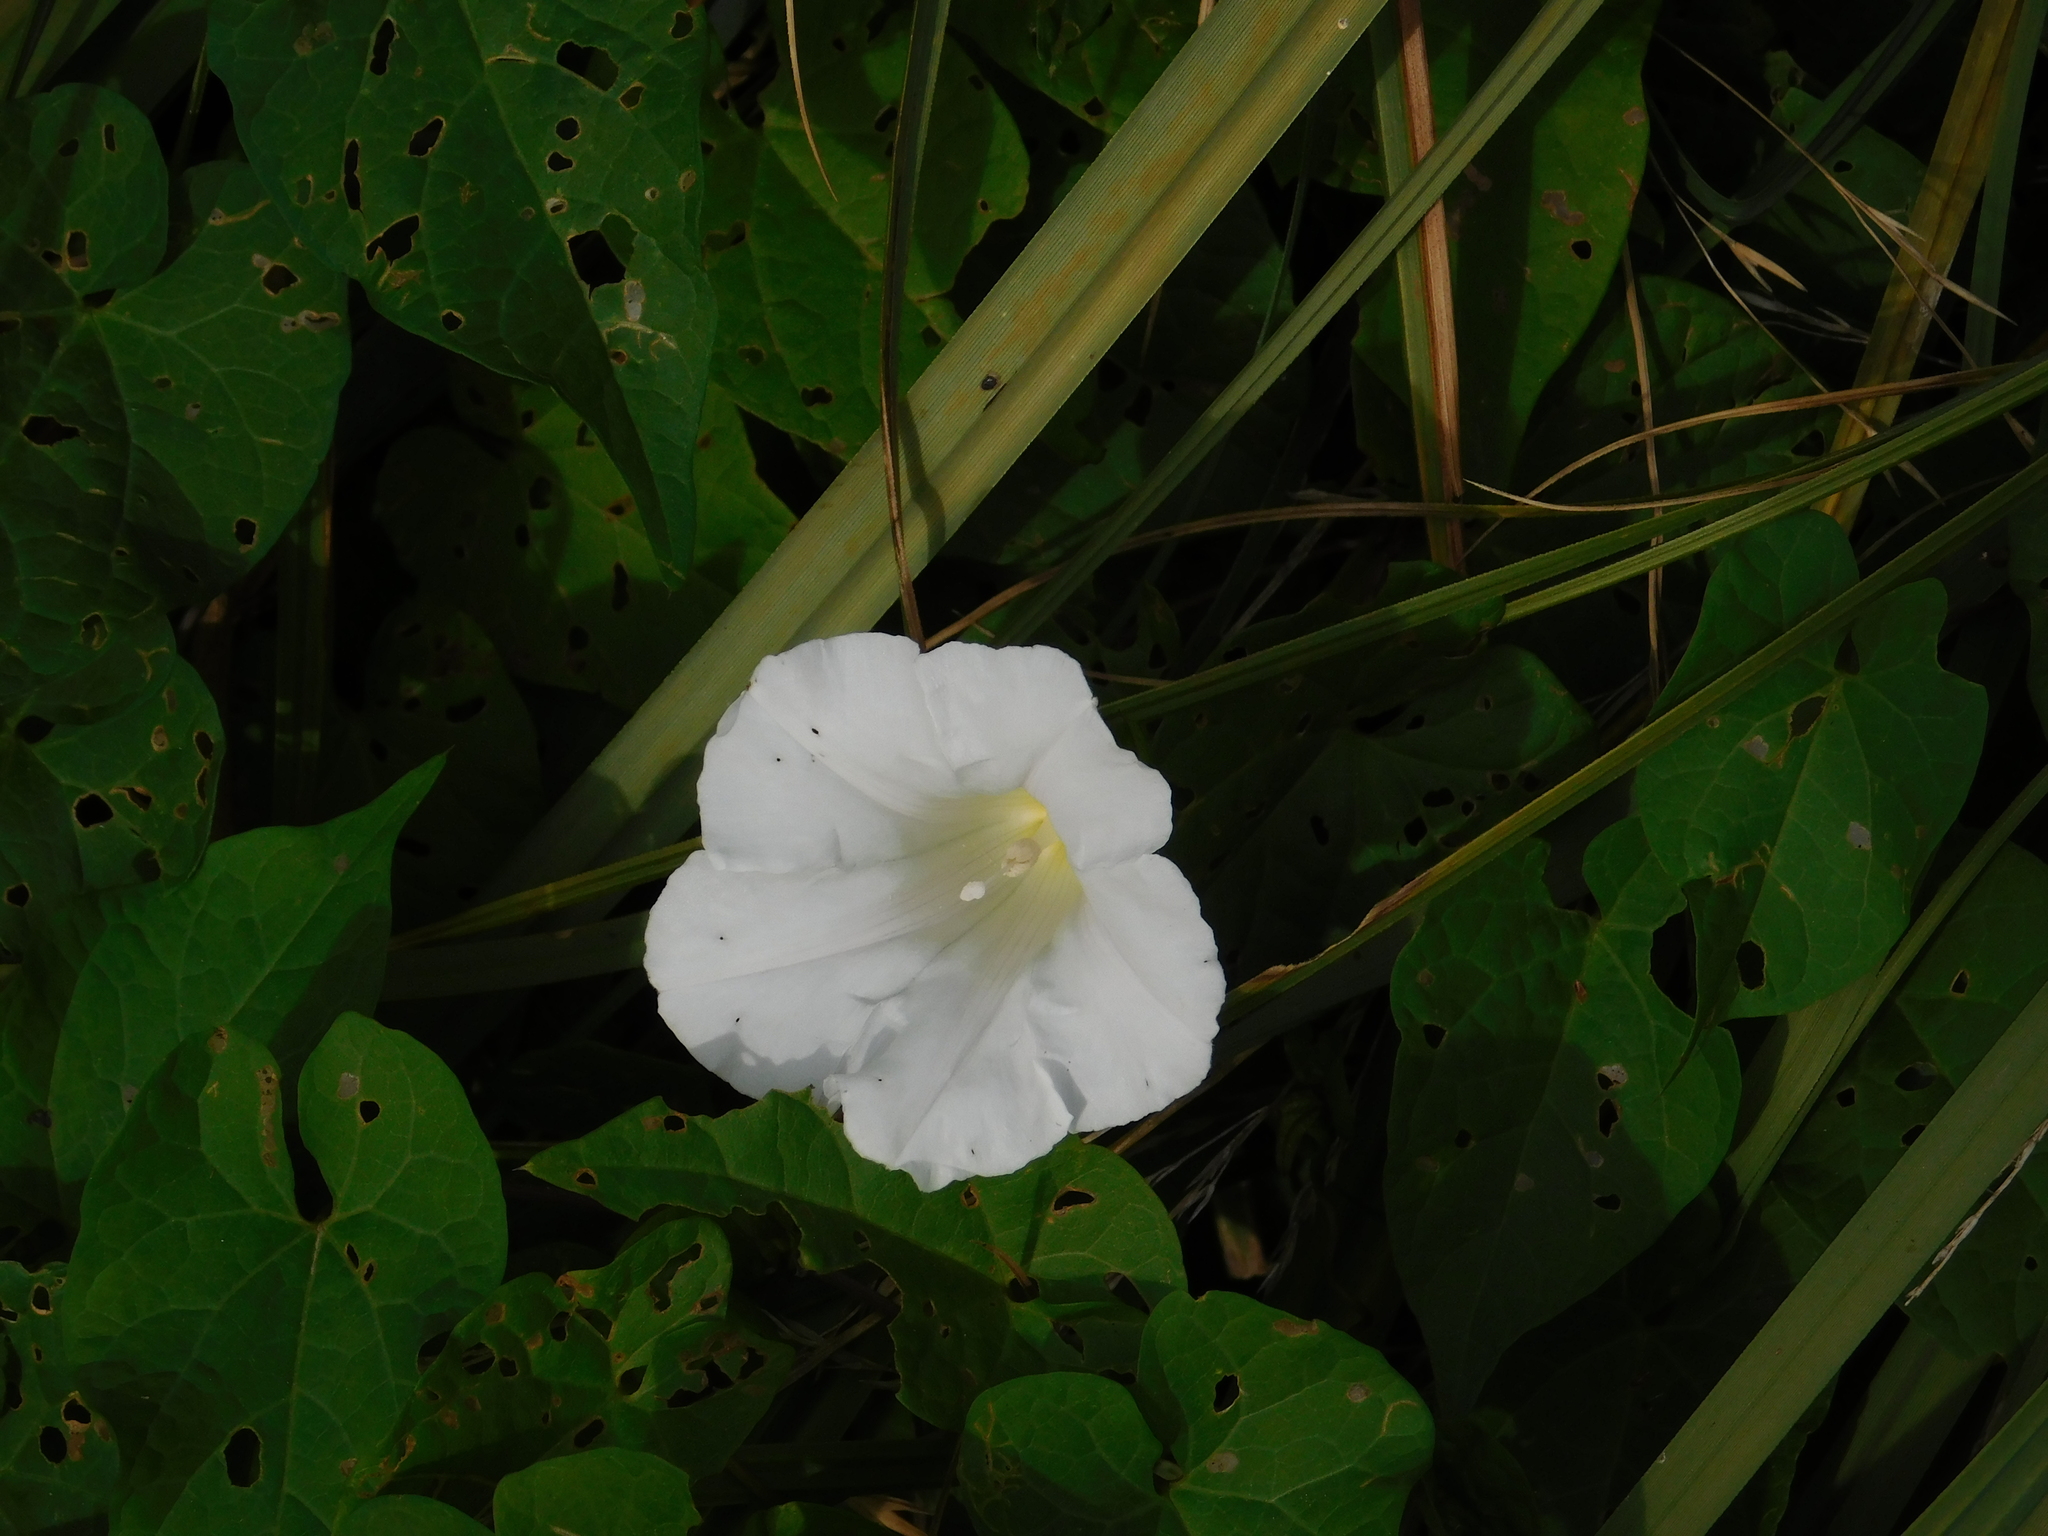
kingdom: Plantae
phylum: Tracheophyta
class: Magnoliopsida
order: Solanales
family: Convolvulaceae
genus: Calystegia
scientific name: Calystegia sepium
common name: Hedge bindweed
